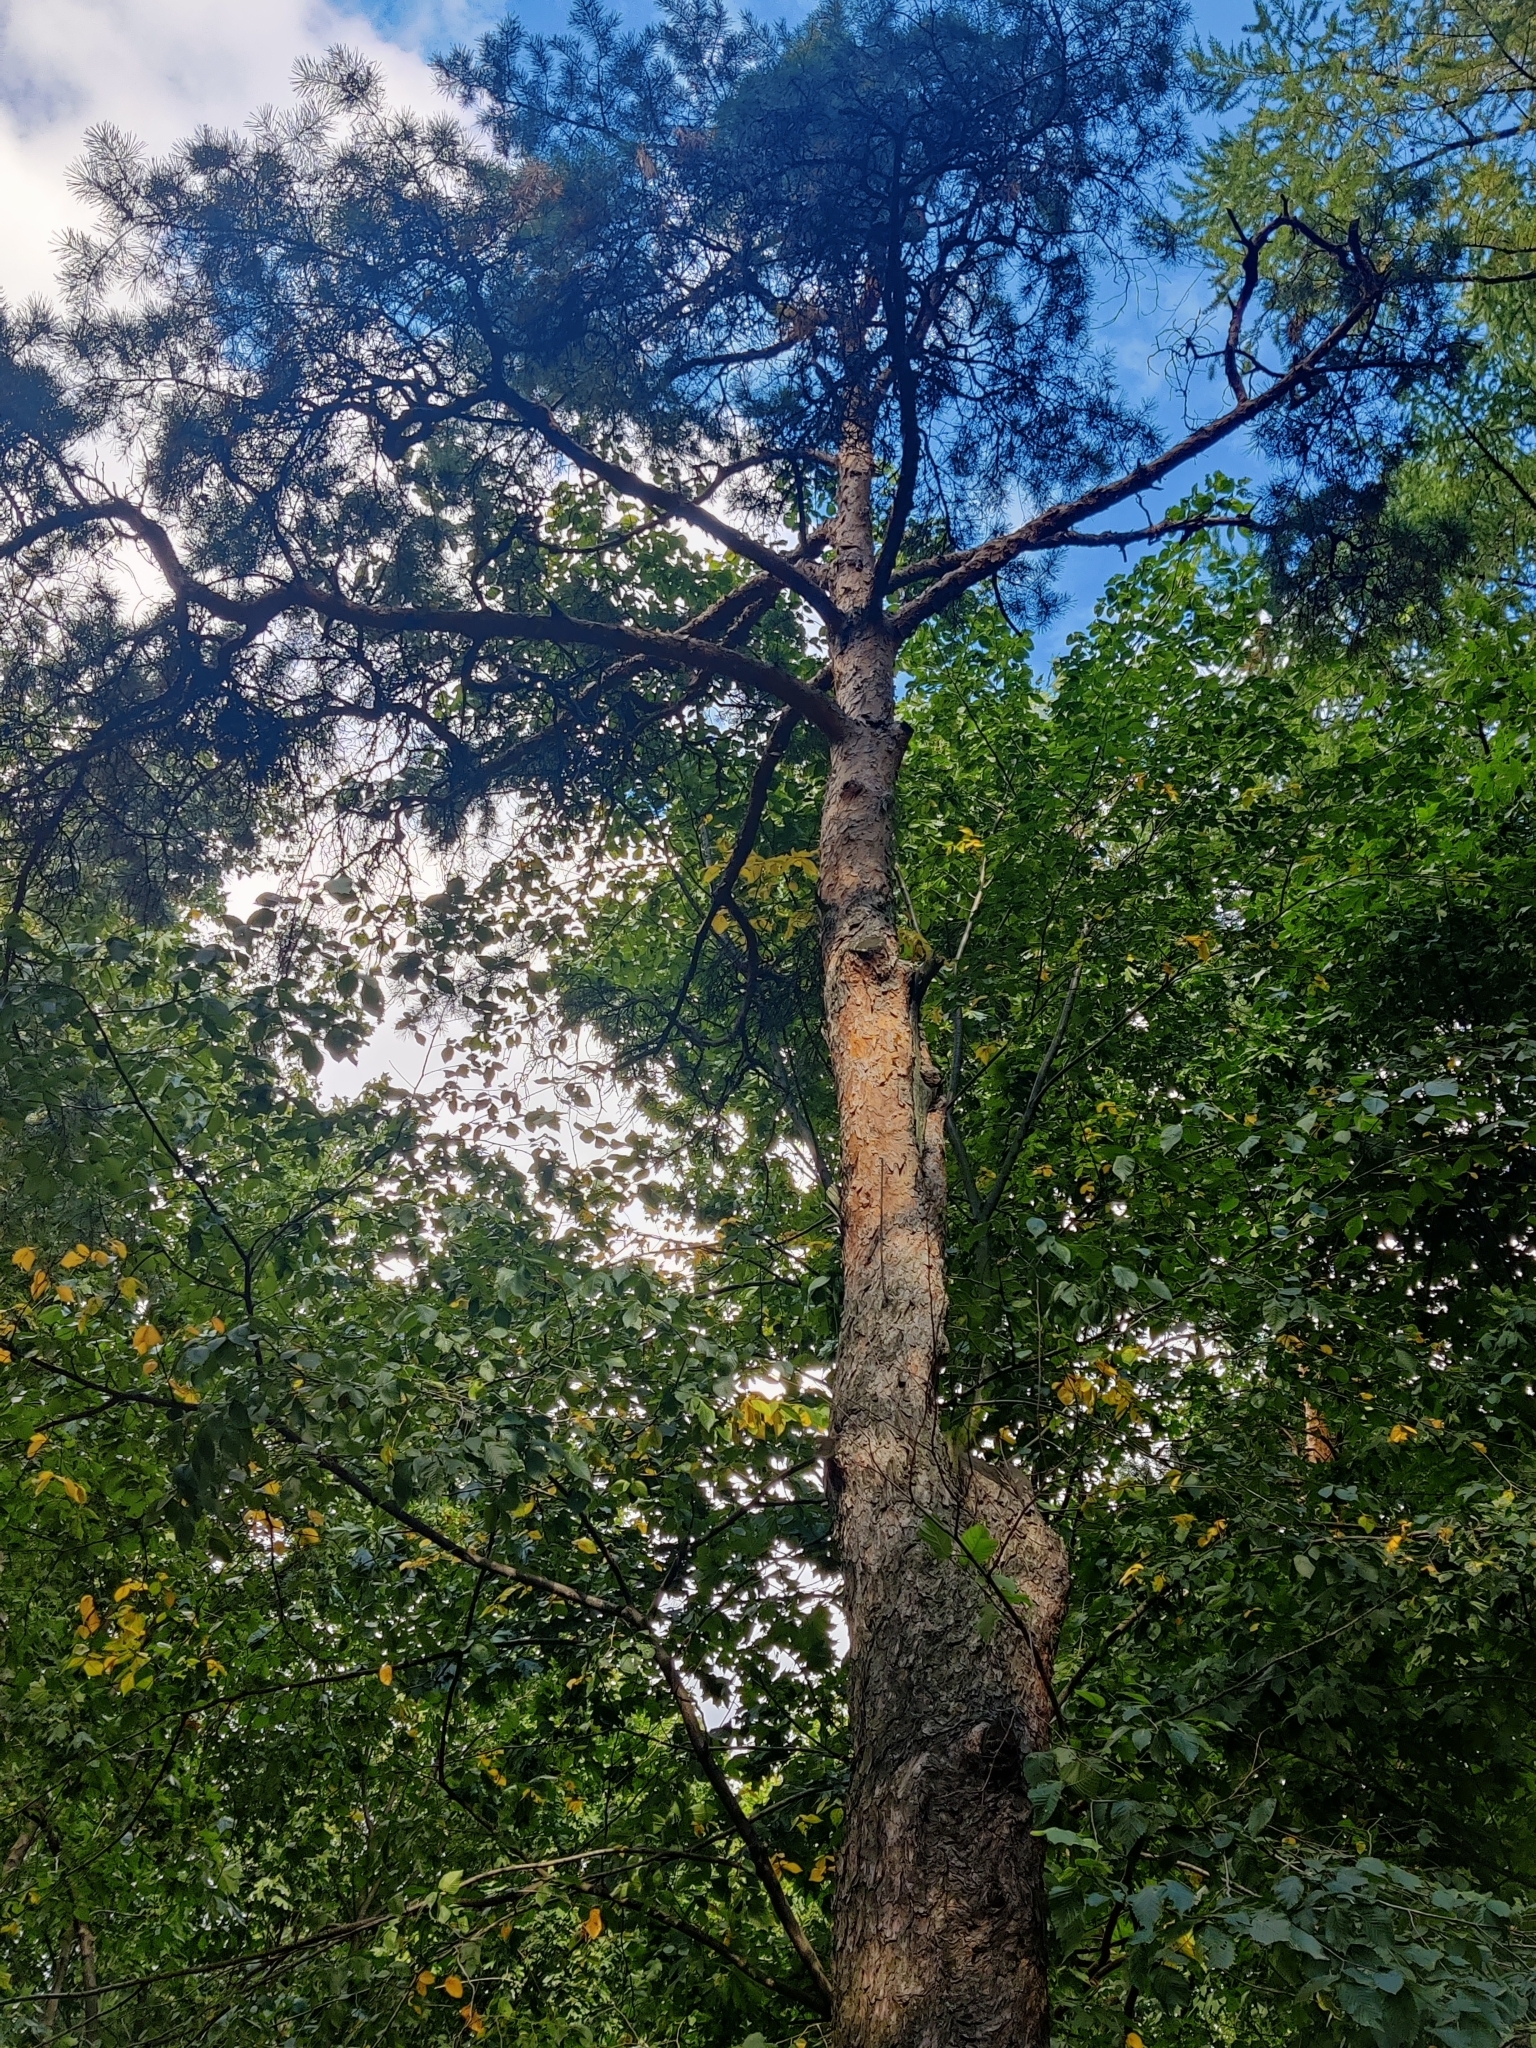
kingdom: Plantae
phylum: Tracheophyta
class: Pinopsida
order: Pinales
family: Pinaceae
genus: Pinus
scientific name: Pinus sylvestris
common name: Scots pine
